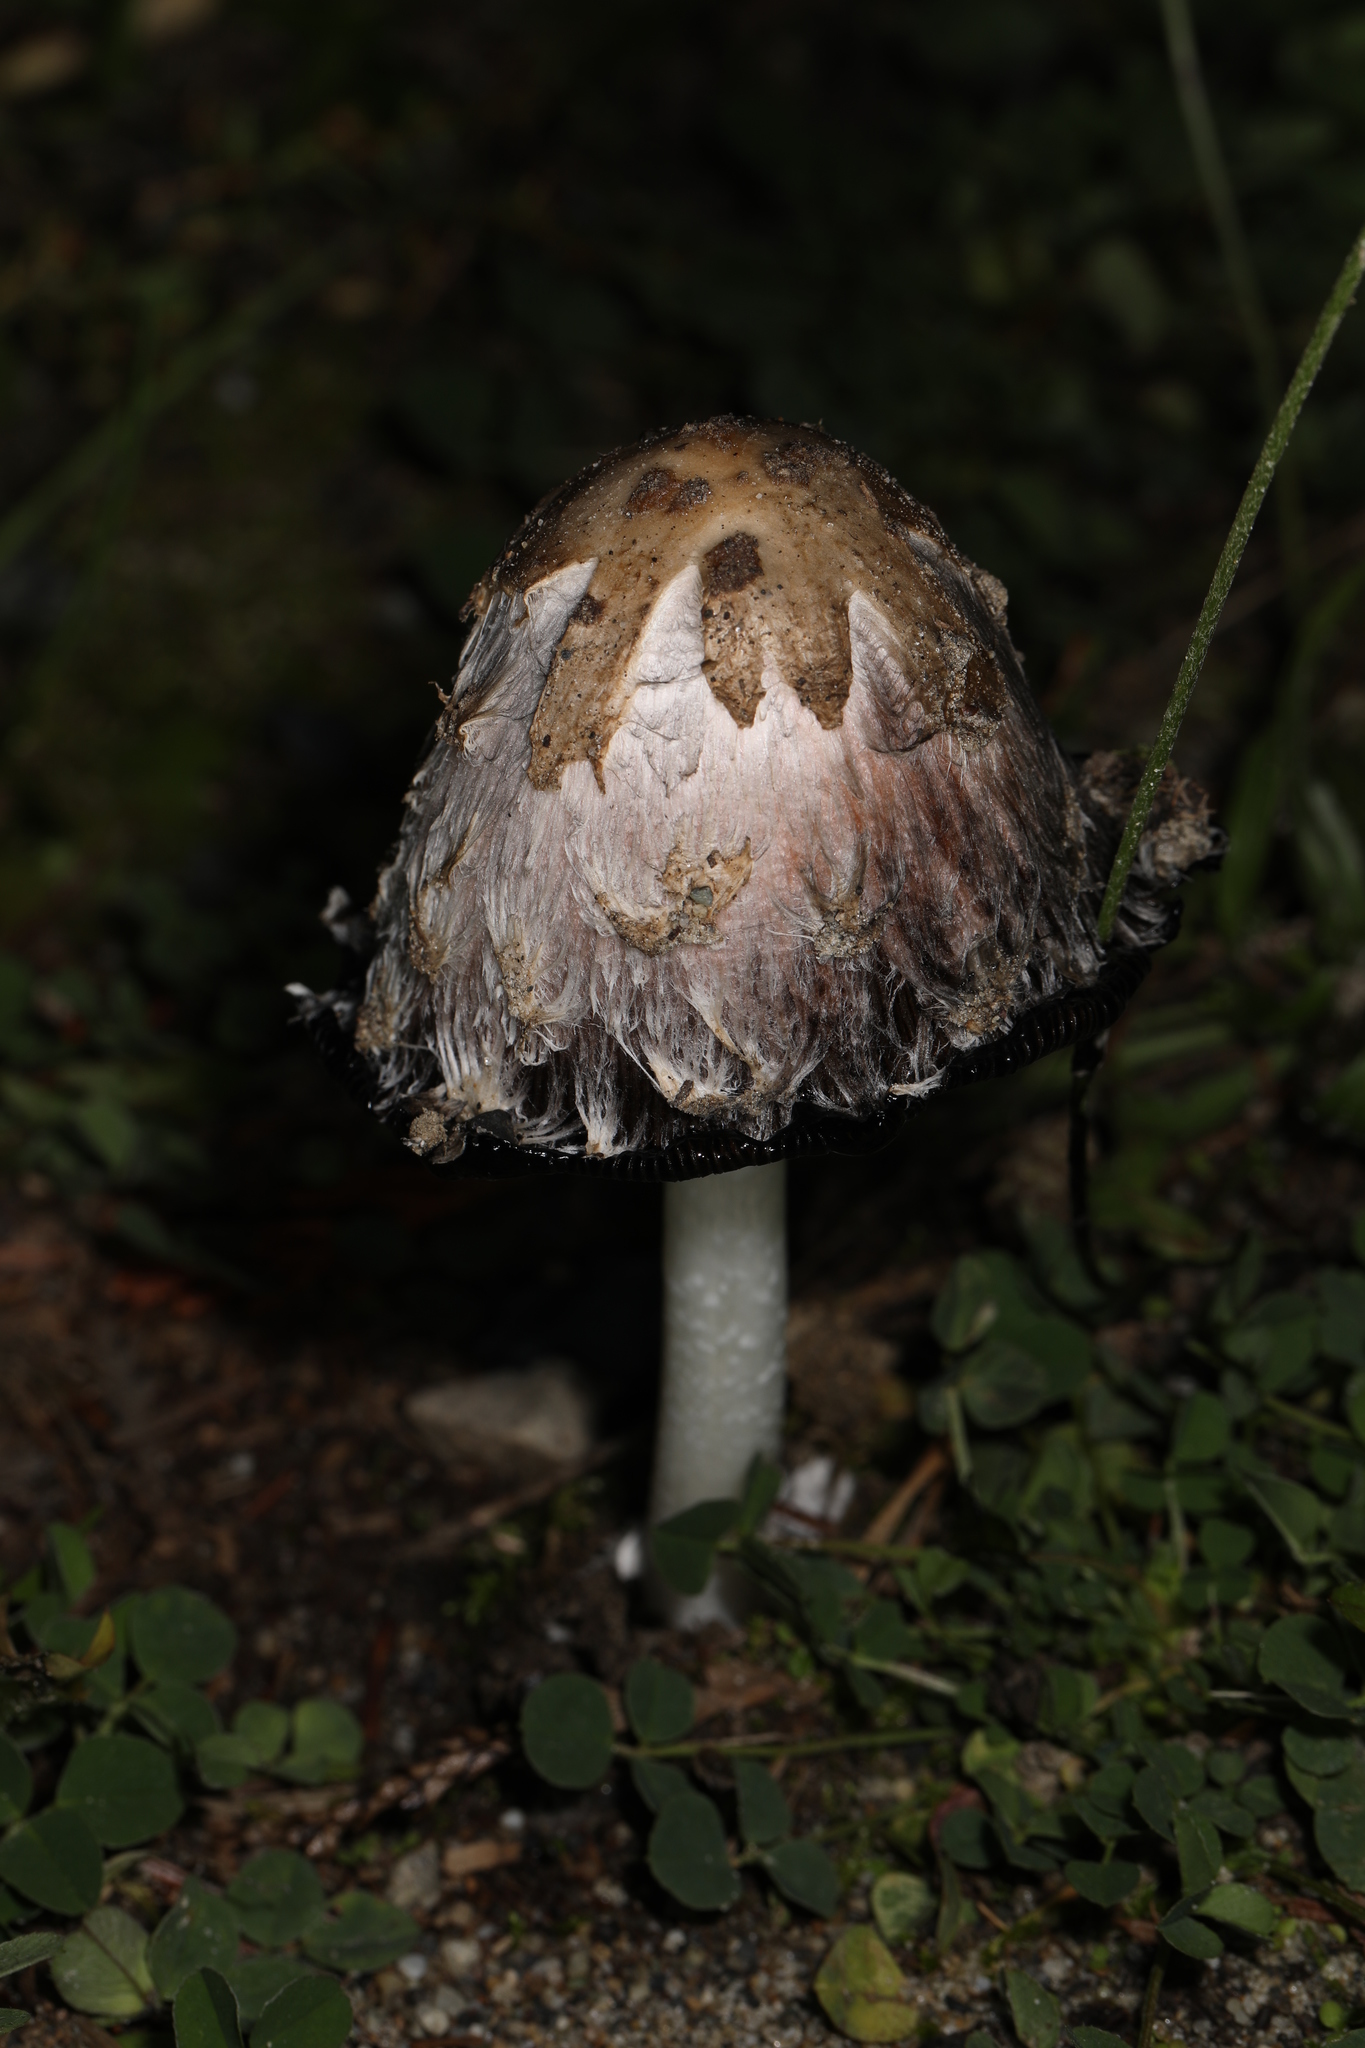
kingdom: Fungi
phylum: Basidiomycota
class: Agaricomycetes
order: Agaricales
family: Agaricaceae
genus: Coprinus
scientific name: Coprinus comatus
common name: Lawyer's wig
